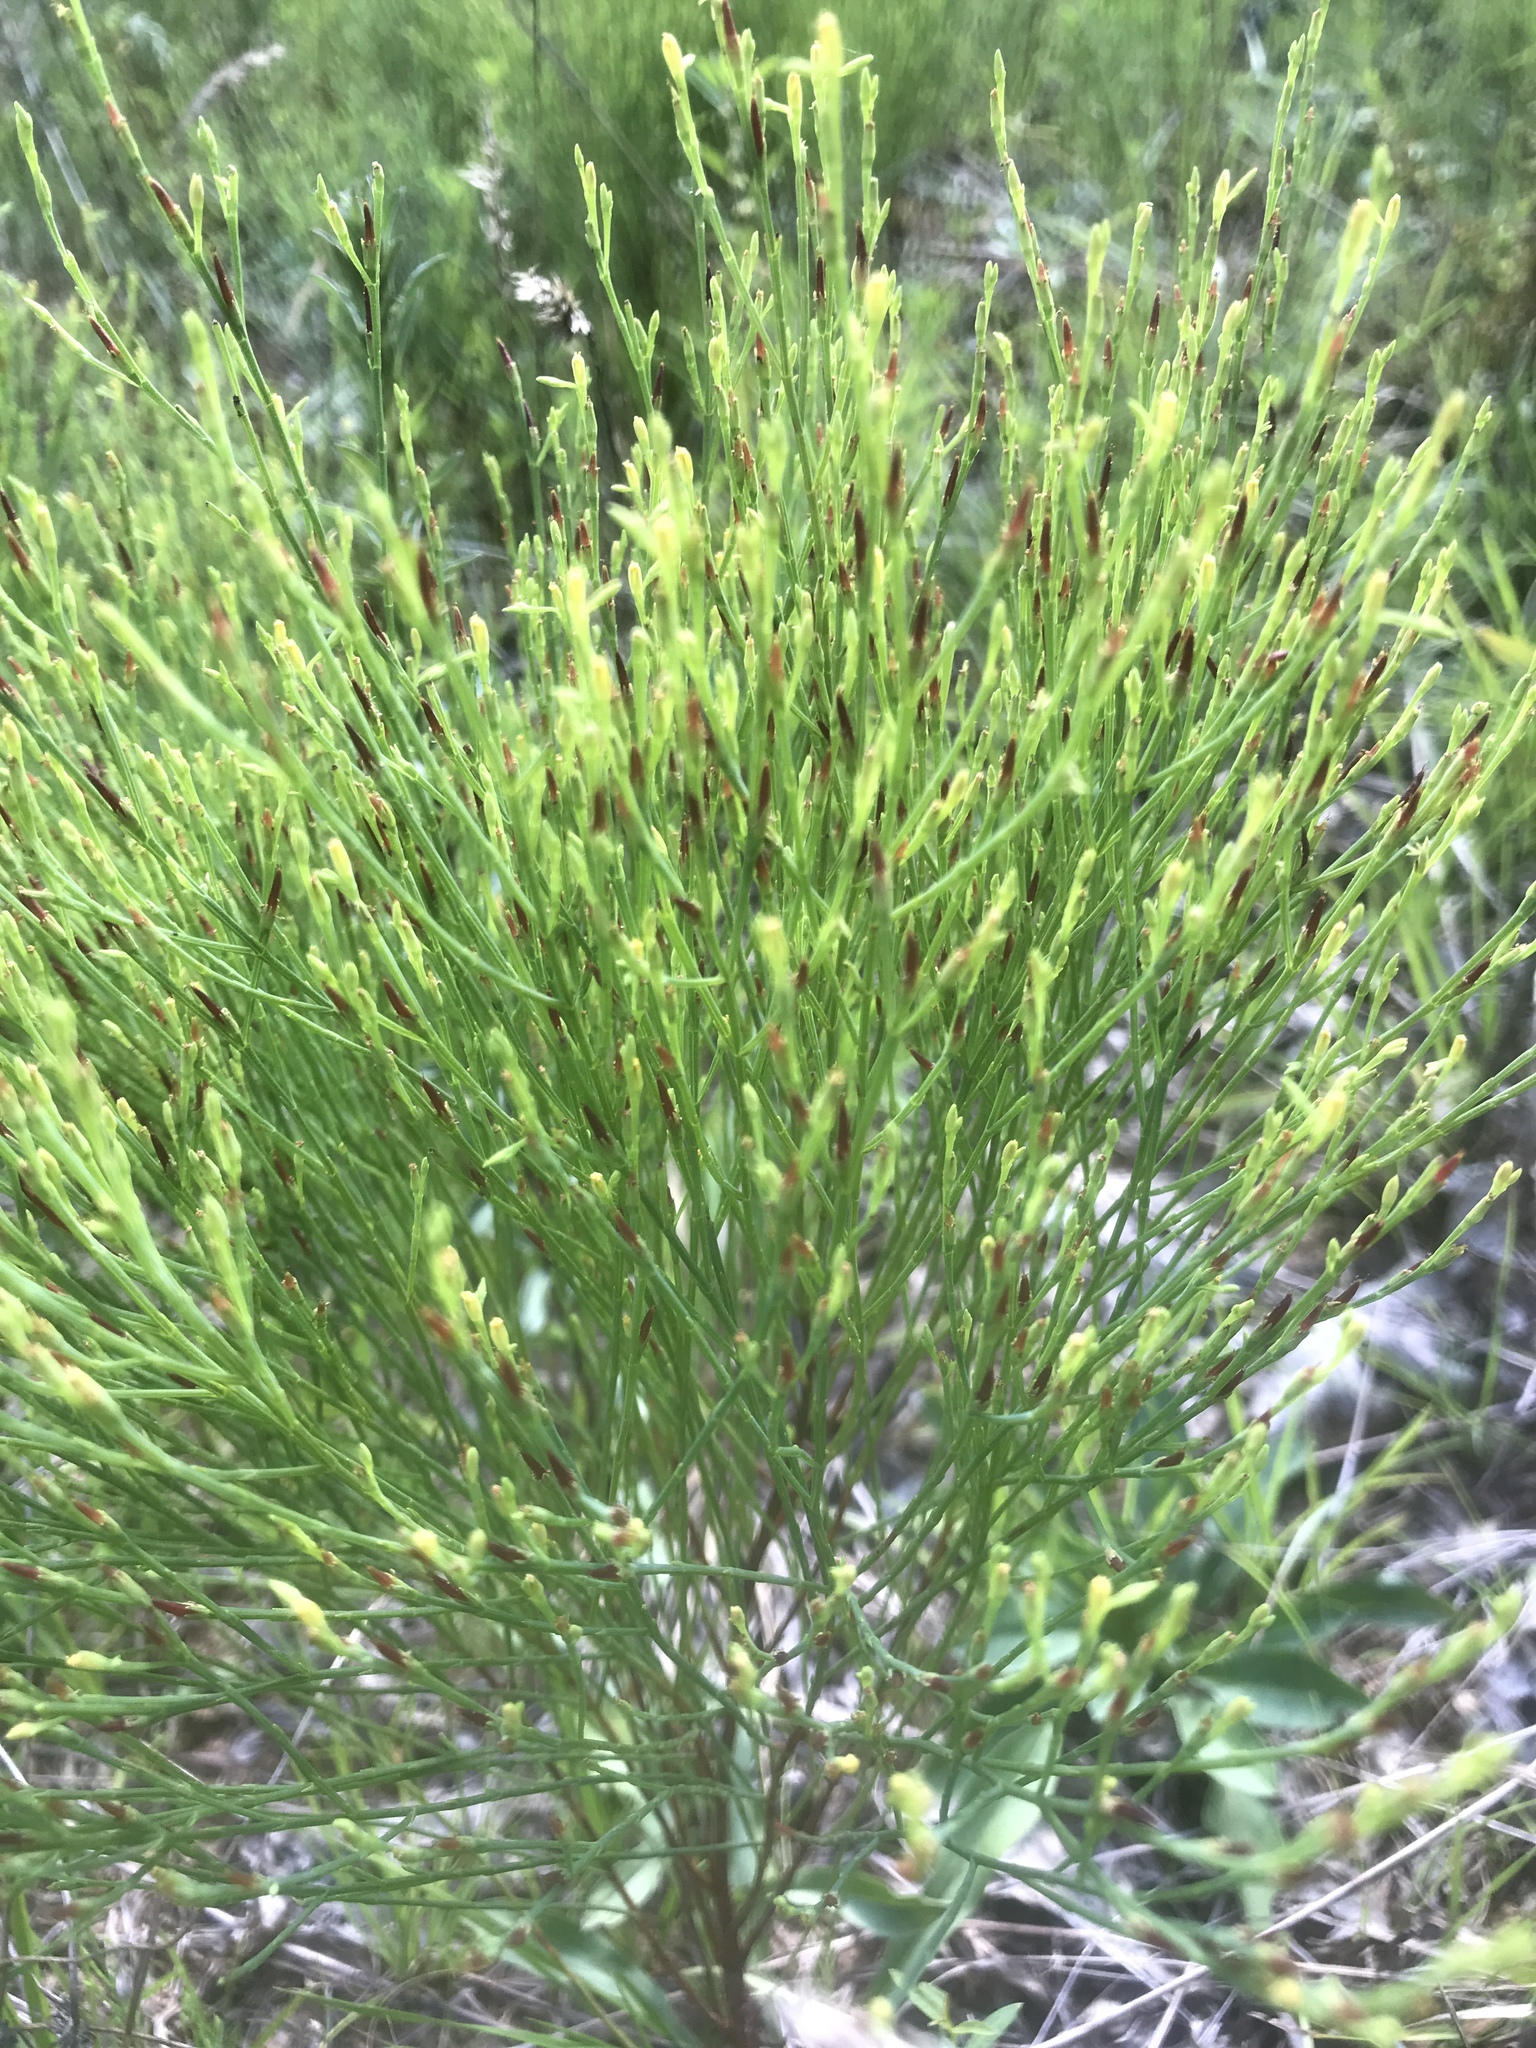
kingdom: Plantae
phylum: Tracheophyta
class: Magnoliopsida
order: Malpighiales
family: Hypericaceae
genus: Hypericum
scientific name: Hypericum gentianoides
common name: Gentian-leaved st. john's-wort
